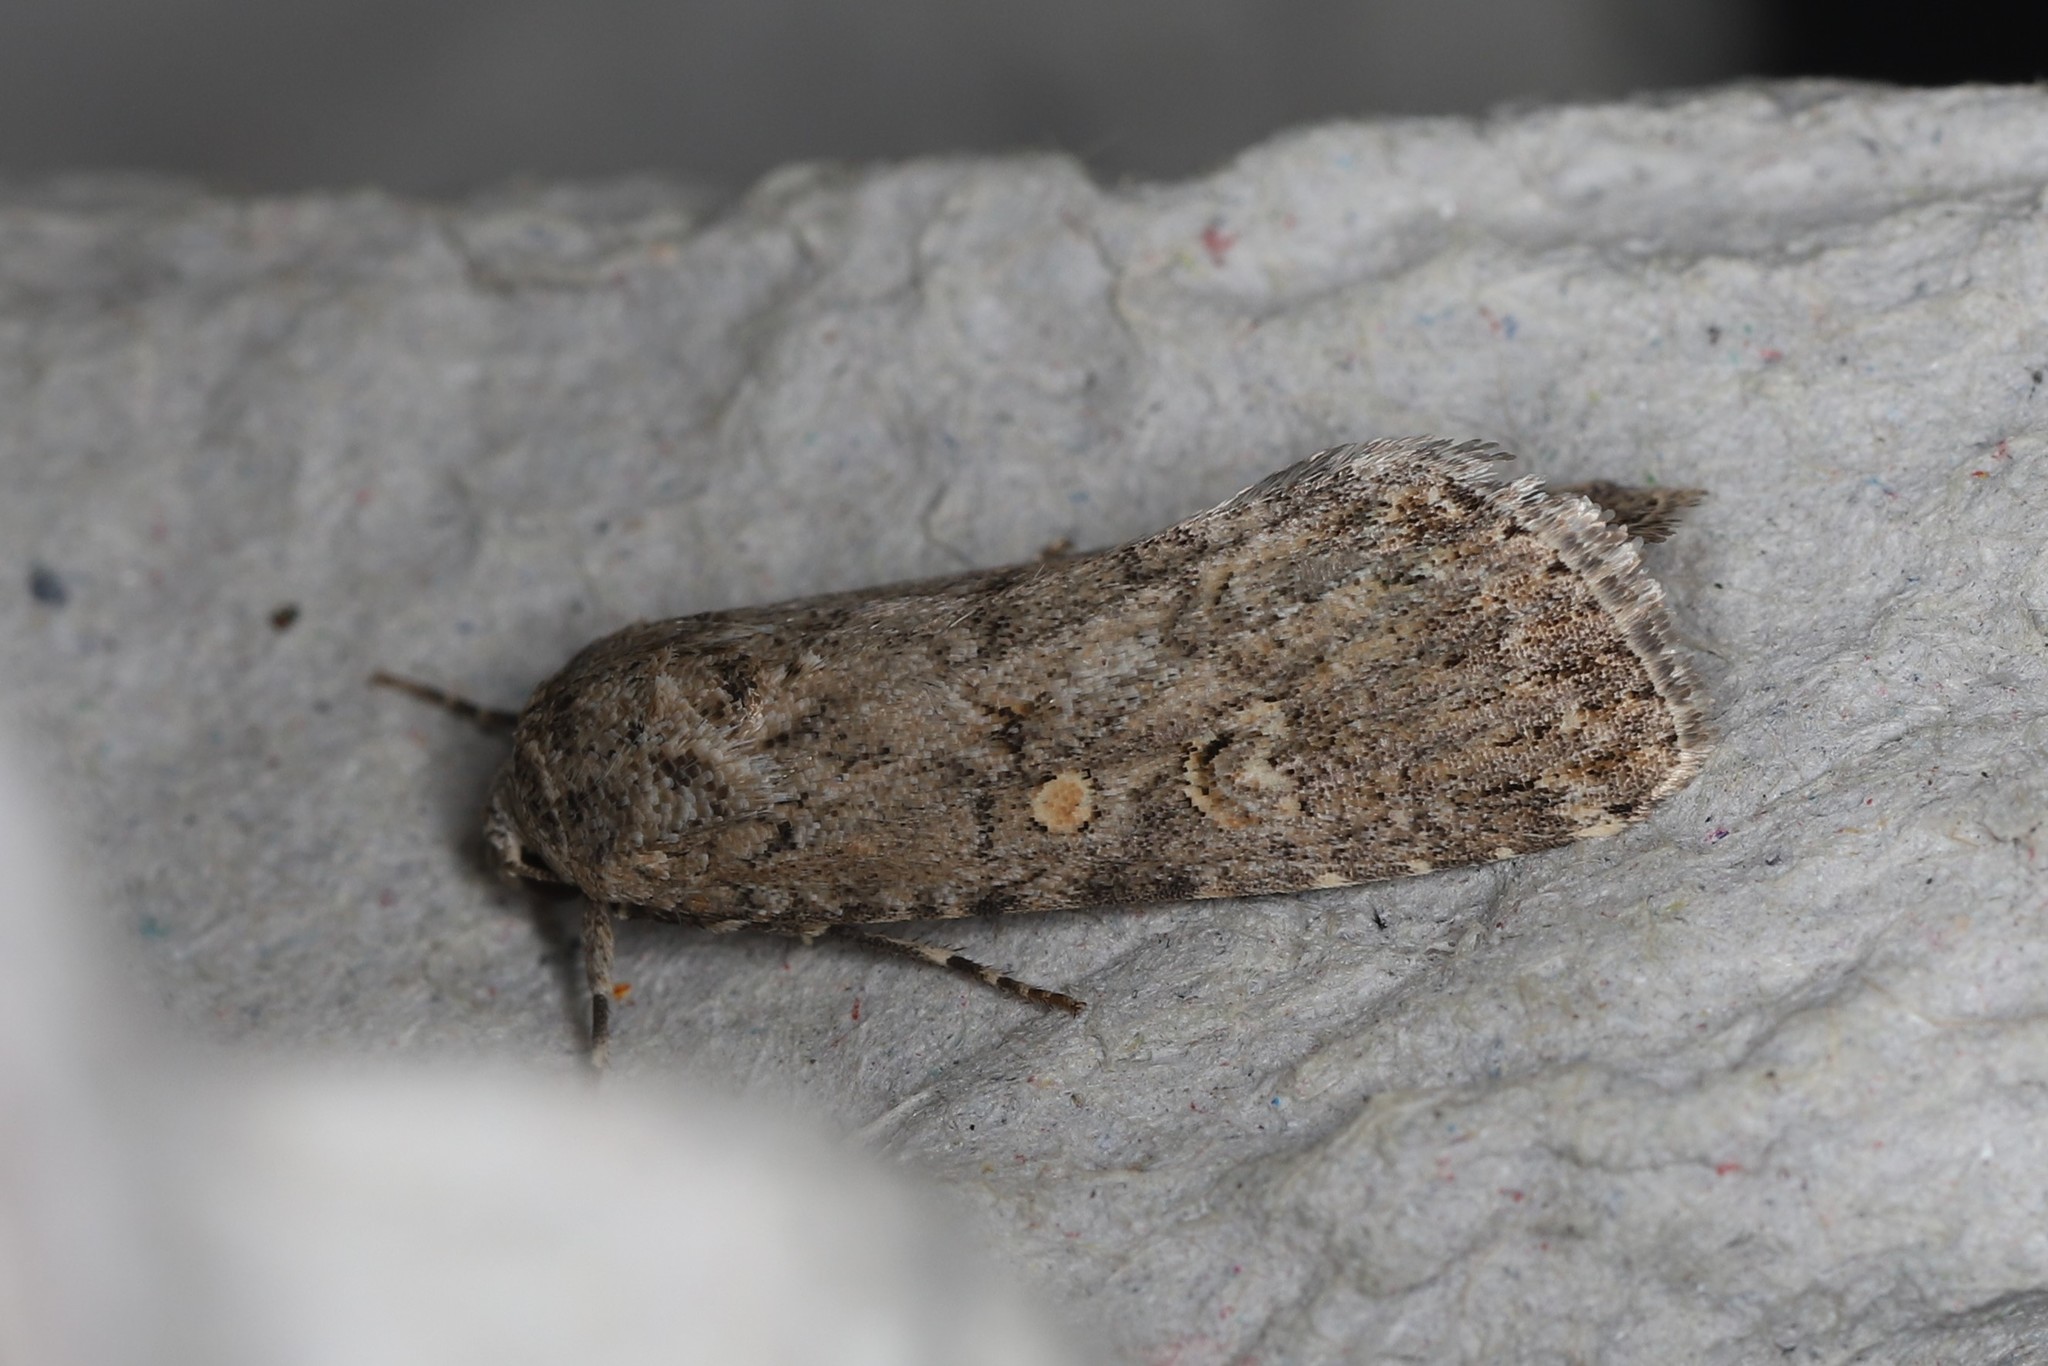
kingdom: Animalia
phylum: Arthropoda
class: Insecta
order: Lepidoptera
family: Noctuidae
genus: Spodoptera
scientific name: Spodoptera exigua
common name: Beet armyworm
